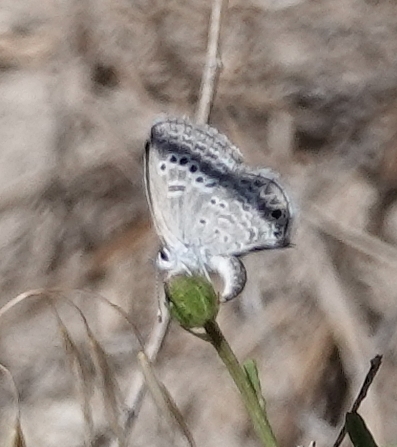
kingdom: Animalia
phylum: Arthropoda
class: Insecta
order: Lepidoptera
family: Lycaenidae
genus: Echinargus
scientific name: Echinargus isola
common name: Reakirt's blue
